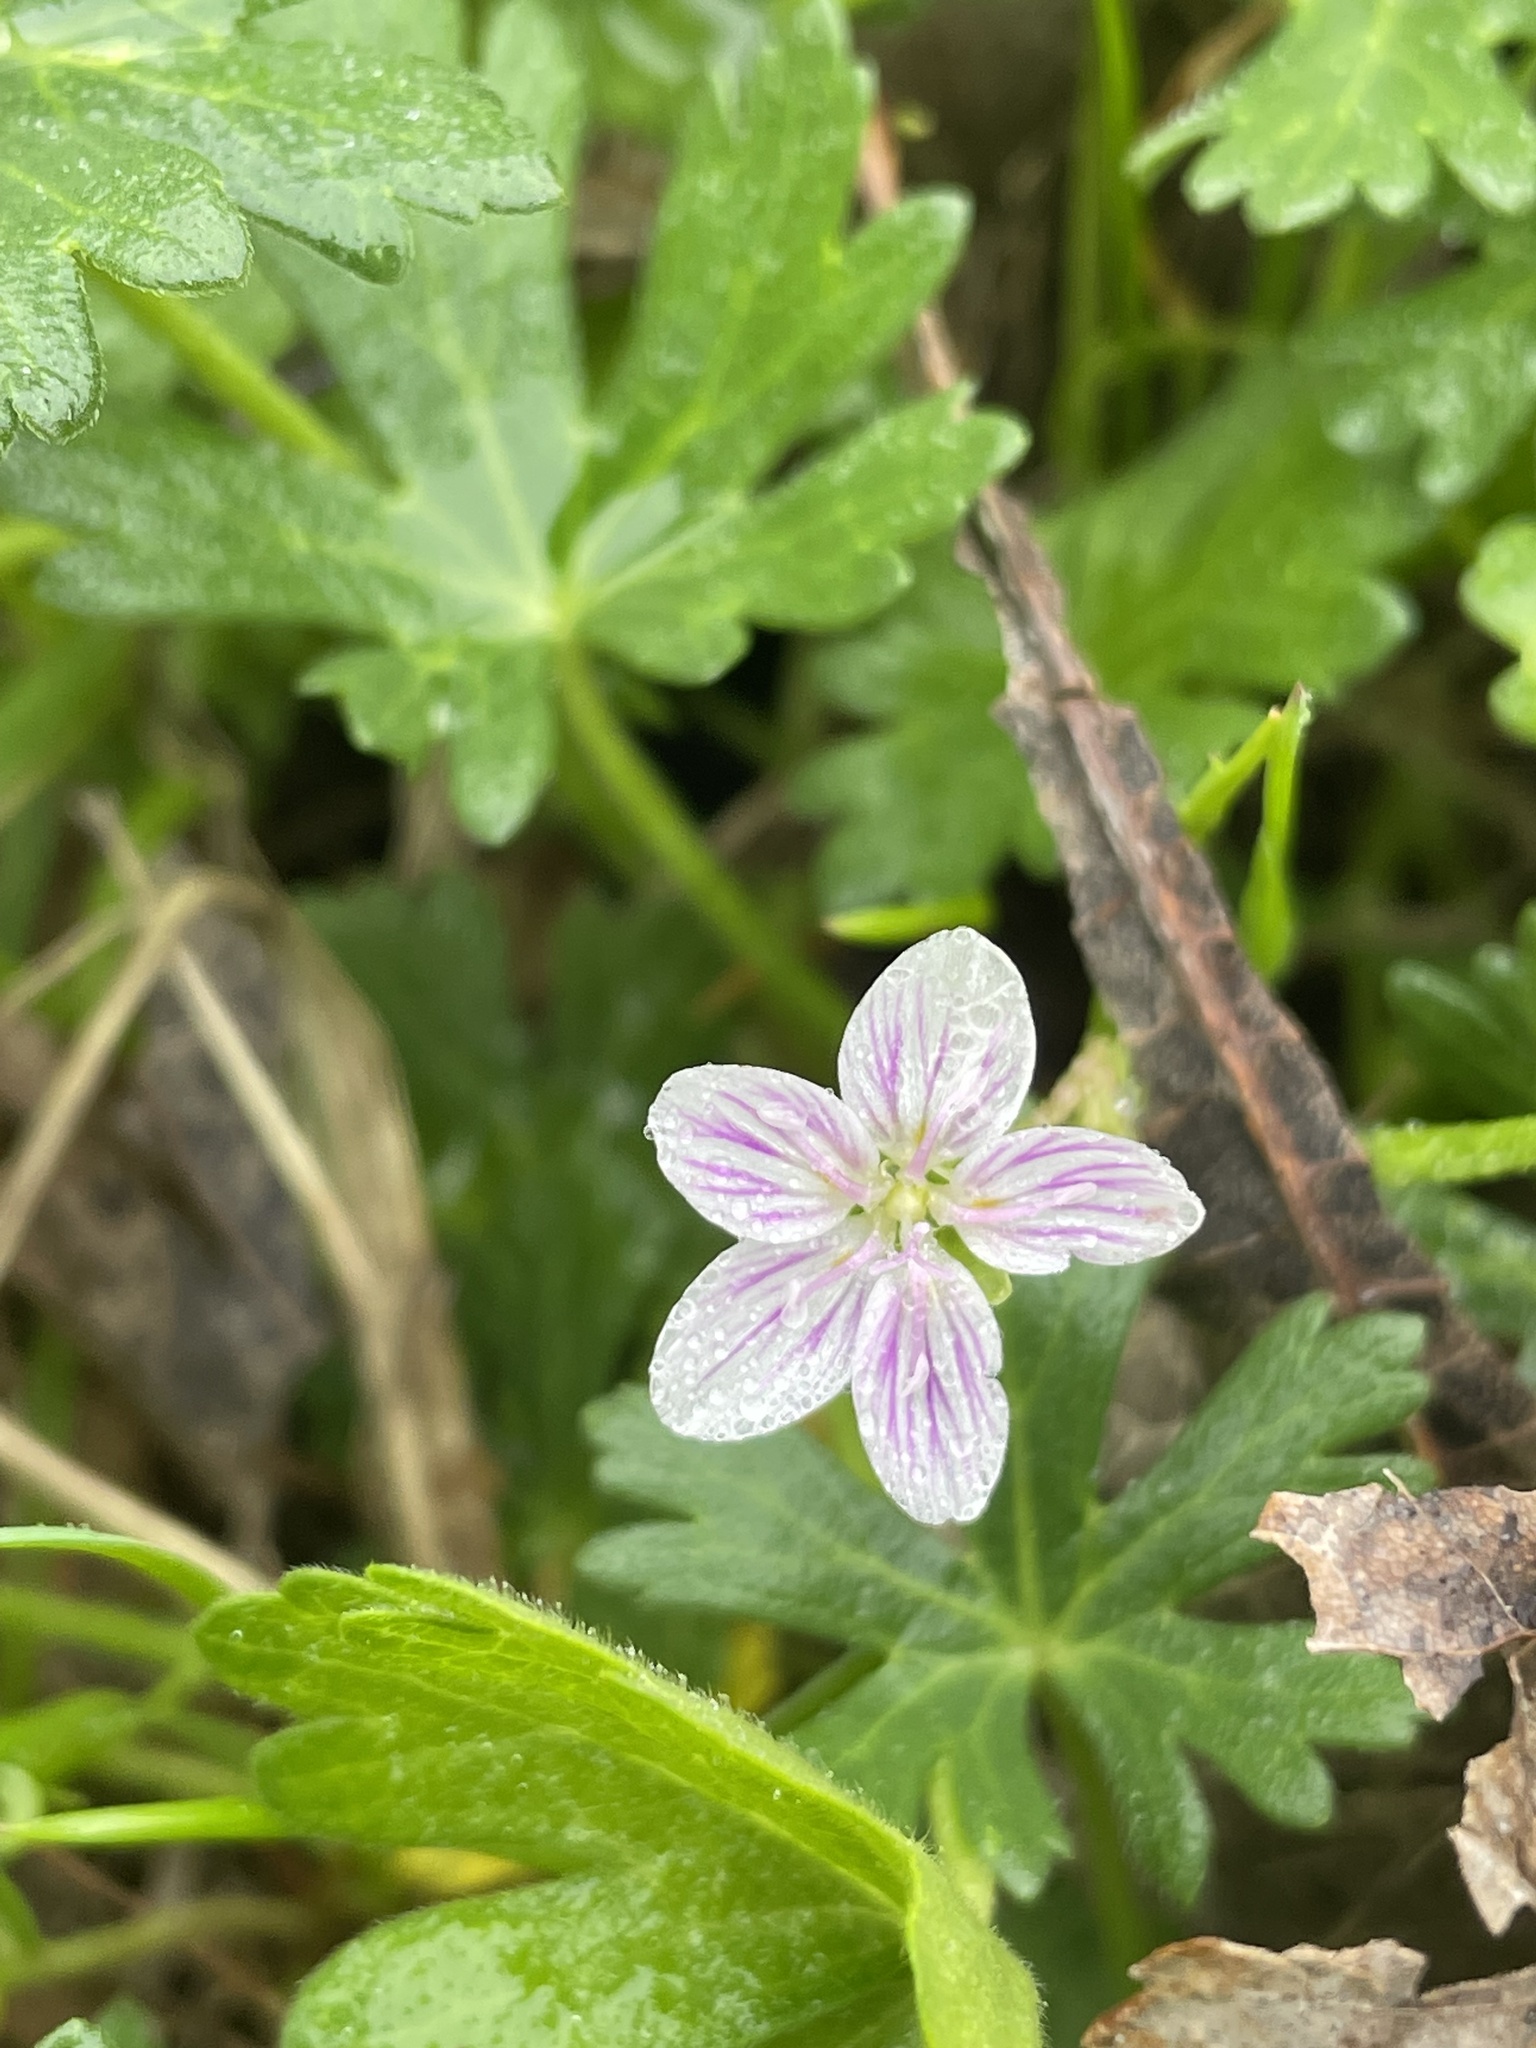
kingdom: Plantae
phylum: Tracheophyta
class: Magnoliopsida
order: Caryophyllales
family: Montiaceae
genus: Claytonia
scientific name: Claytonia virginica
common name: Virginia springbeauty
